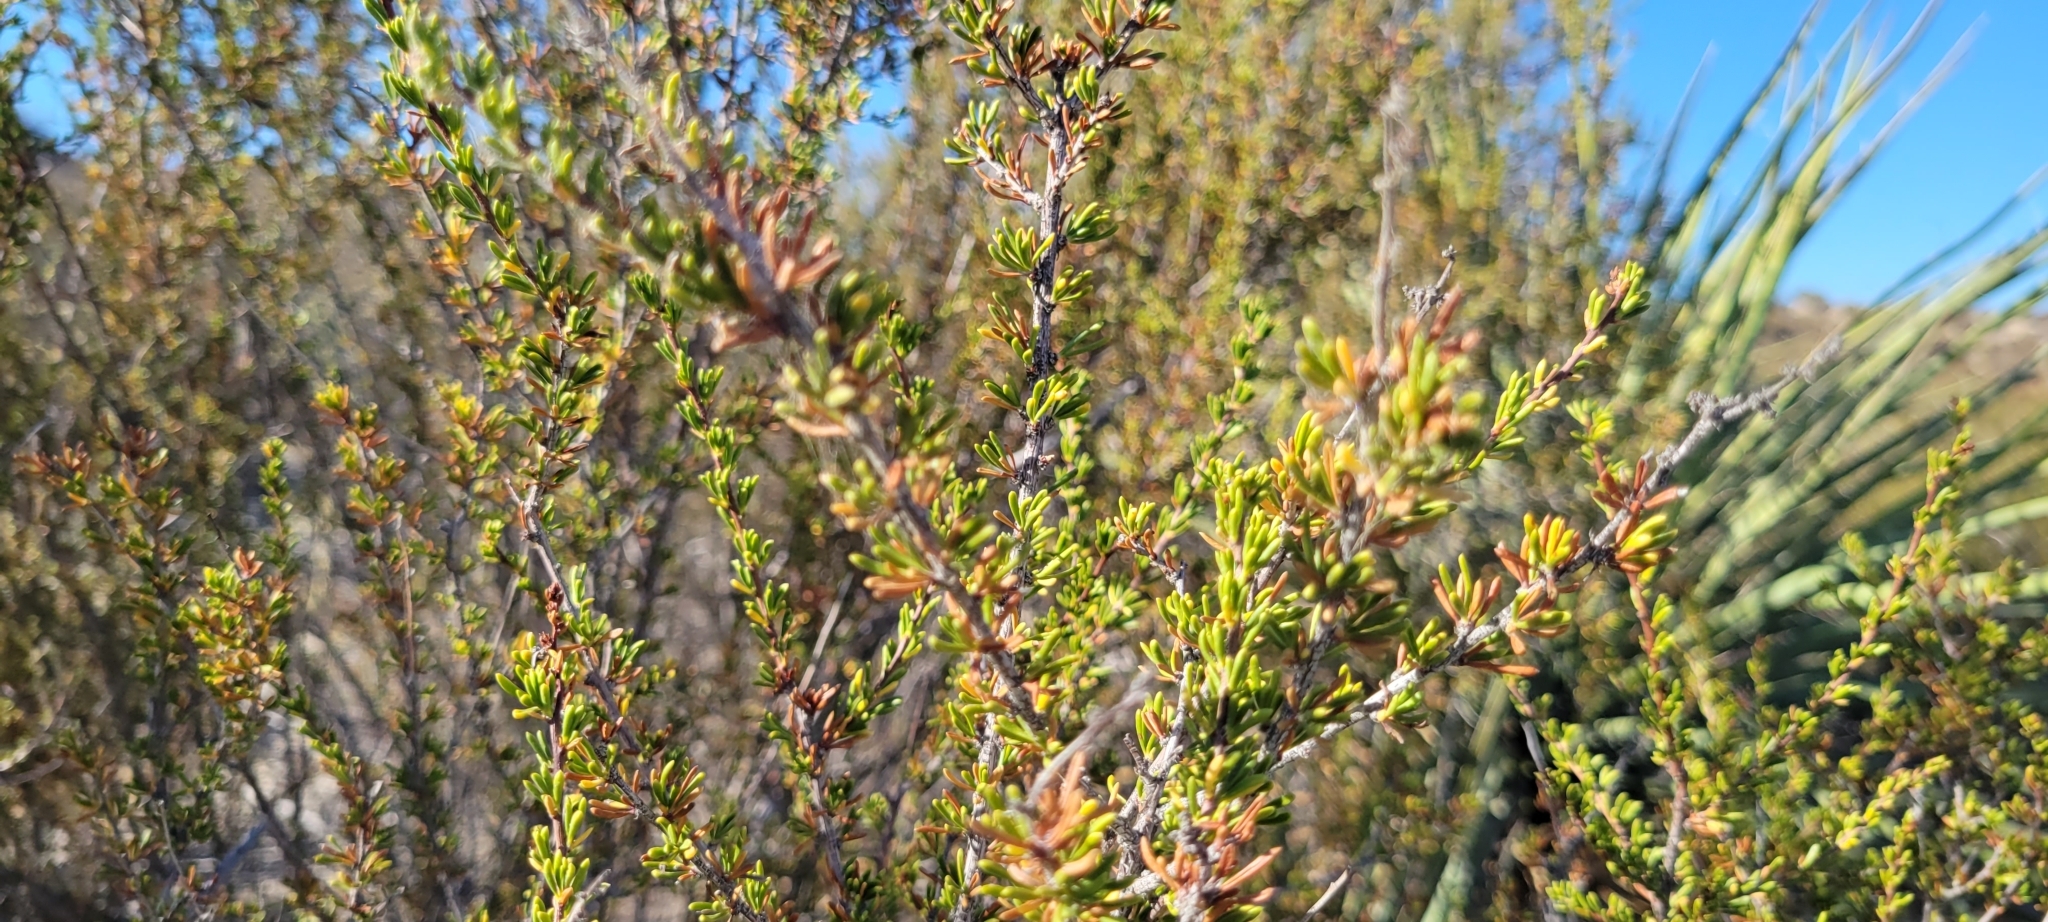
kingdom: Plantae
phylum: Tracheophyta
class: Magnoliopsida
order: Rosales
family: Rosaceae
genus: Adenostoma
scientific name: Adenostoma fasciculatum
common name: Chamise
